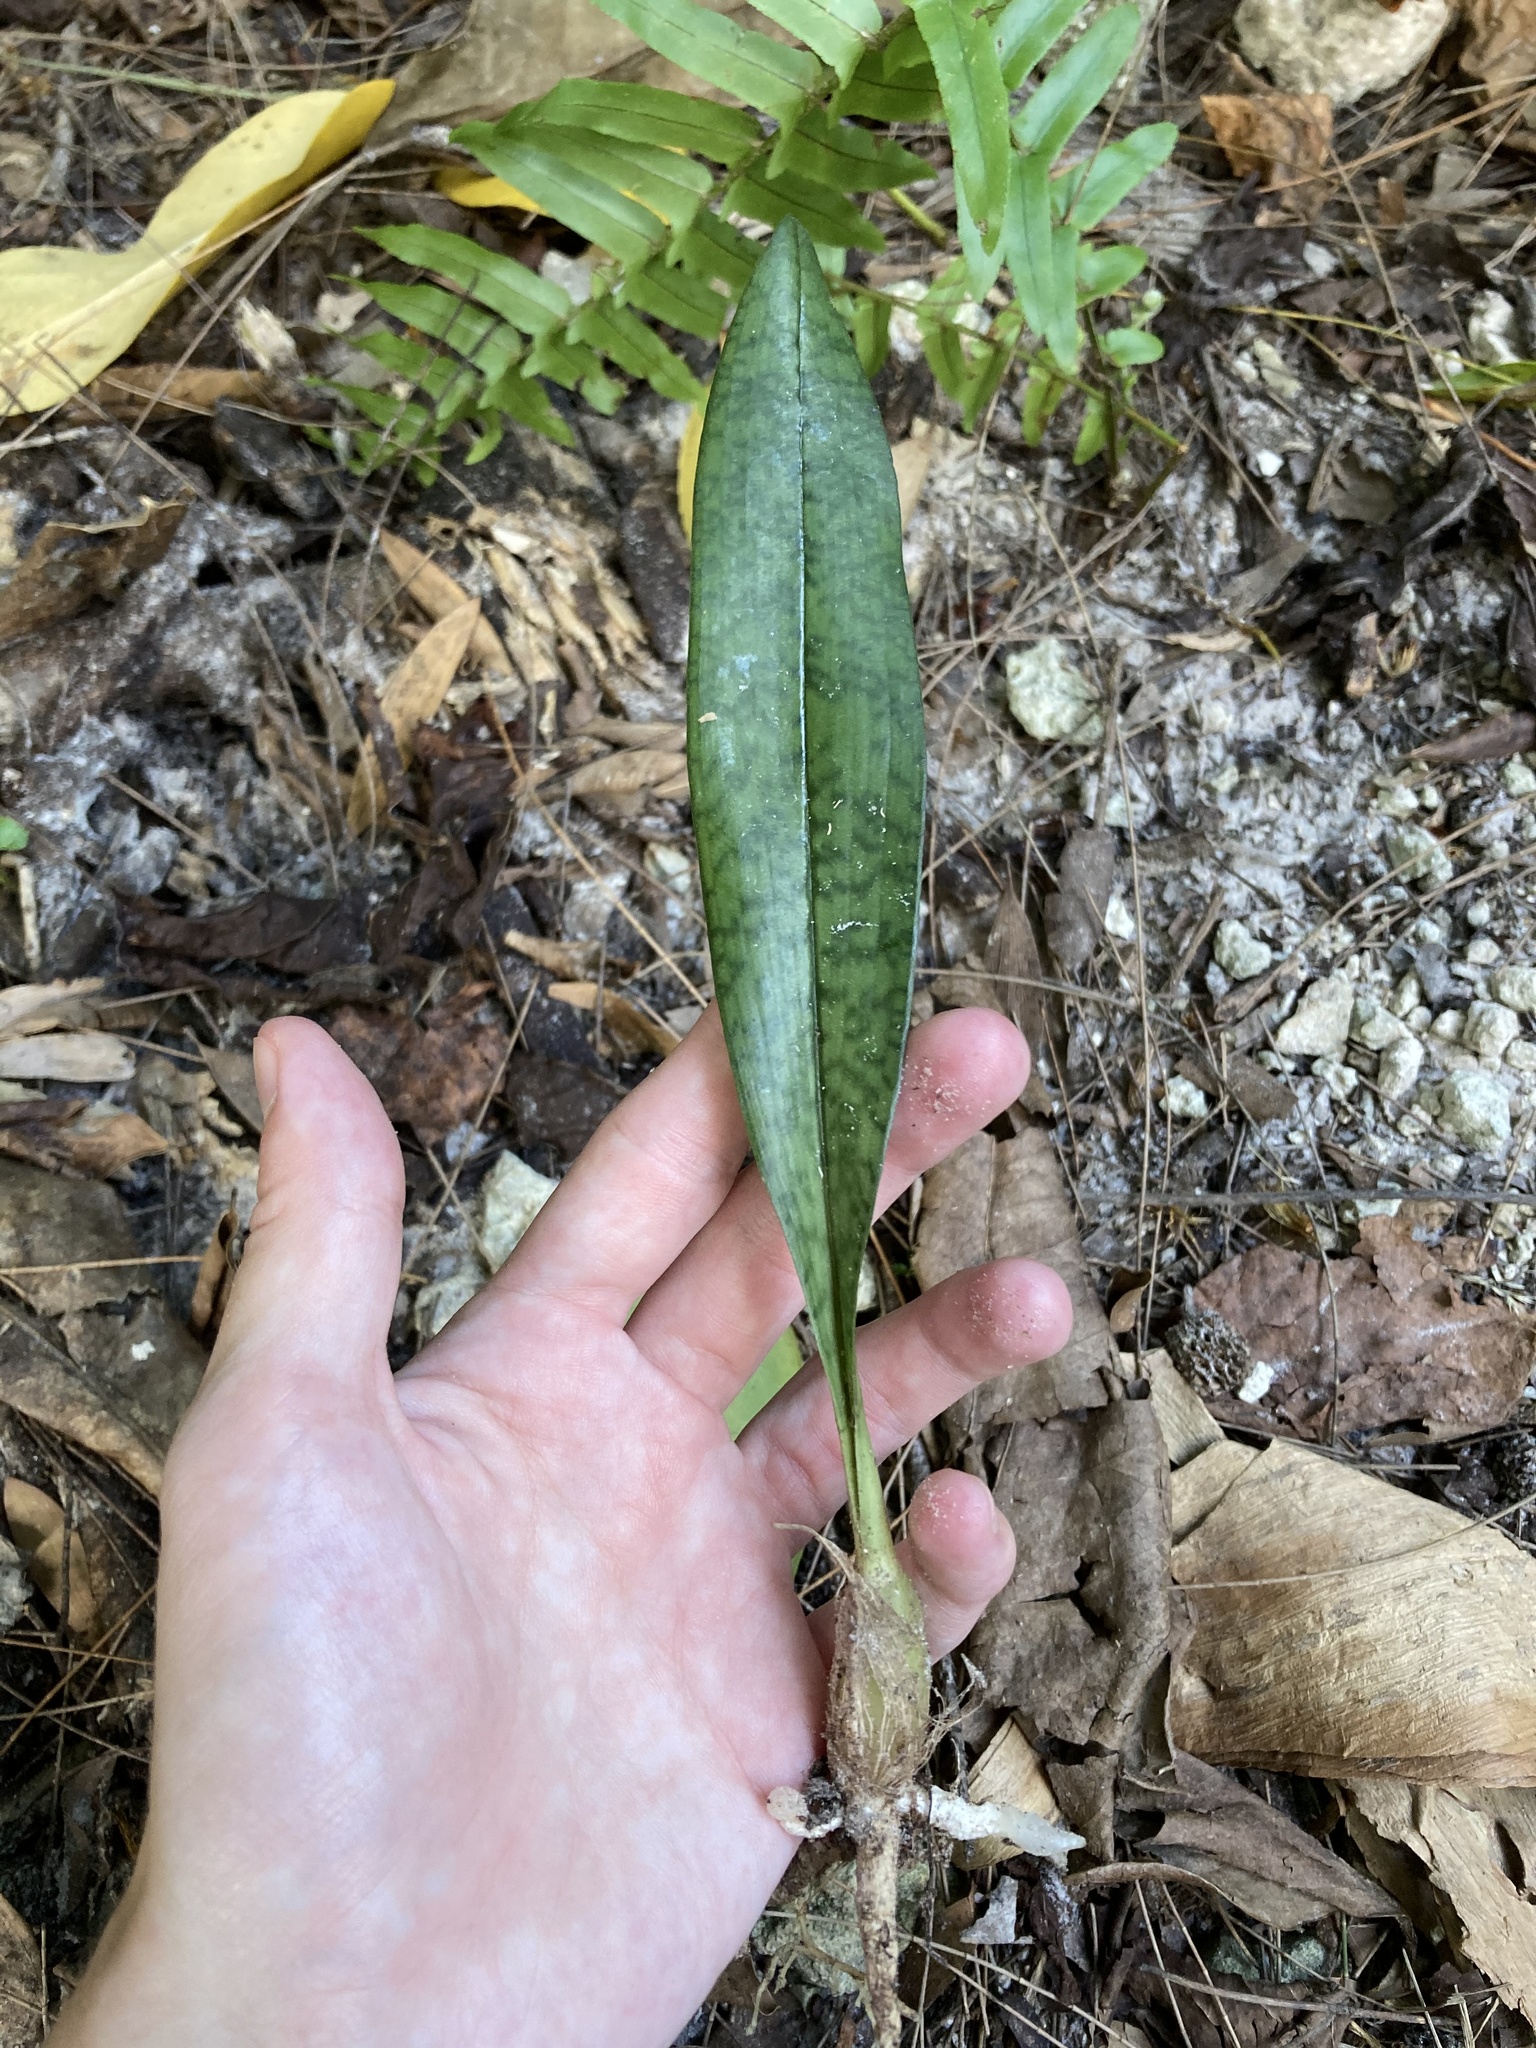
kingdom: Plantae
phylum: Tracheophyta
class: Liliopsida
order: Asparagales
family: Orchidaceae
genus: Eulophia
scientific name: Eulophia maculata
